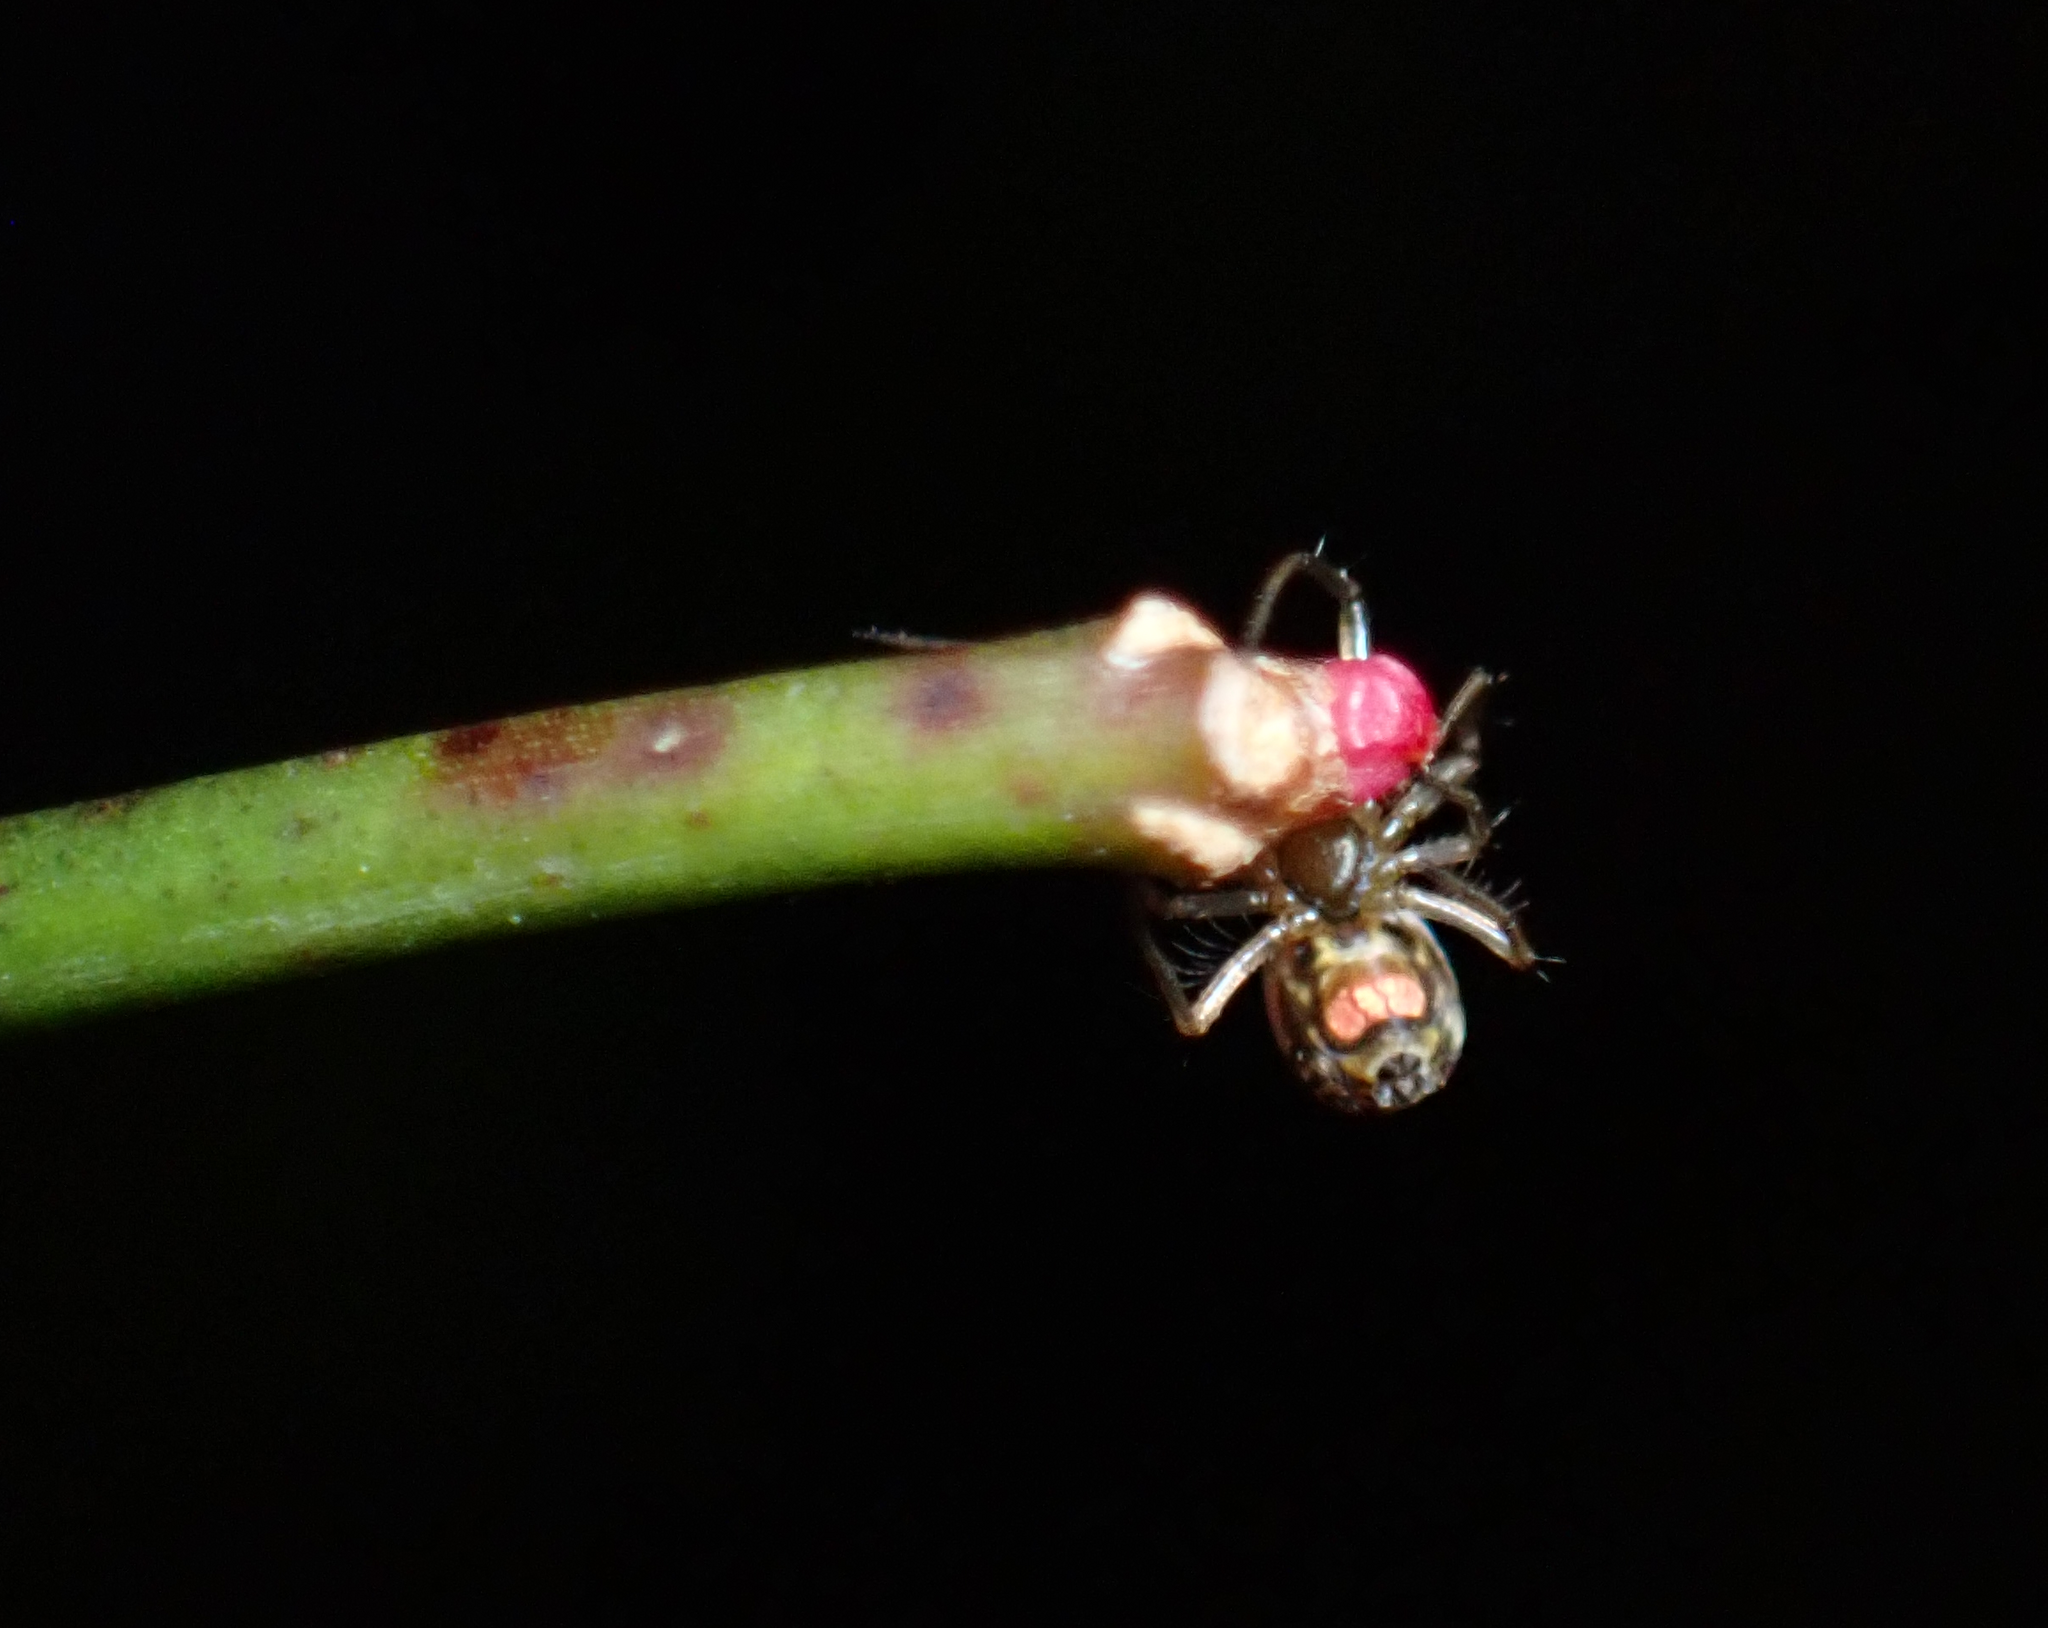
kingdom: Animalia
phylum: Arthropoda
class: Arachnida
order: Araneae
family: Tetragnathidae
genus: Leucauge
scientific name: Leucauge venusta
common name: Longjawed orb weavers
